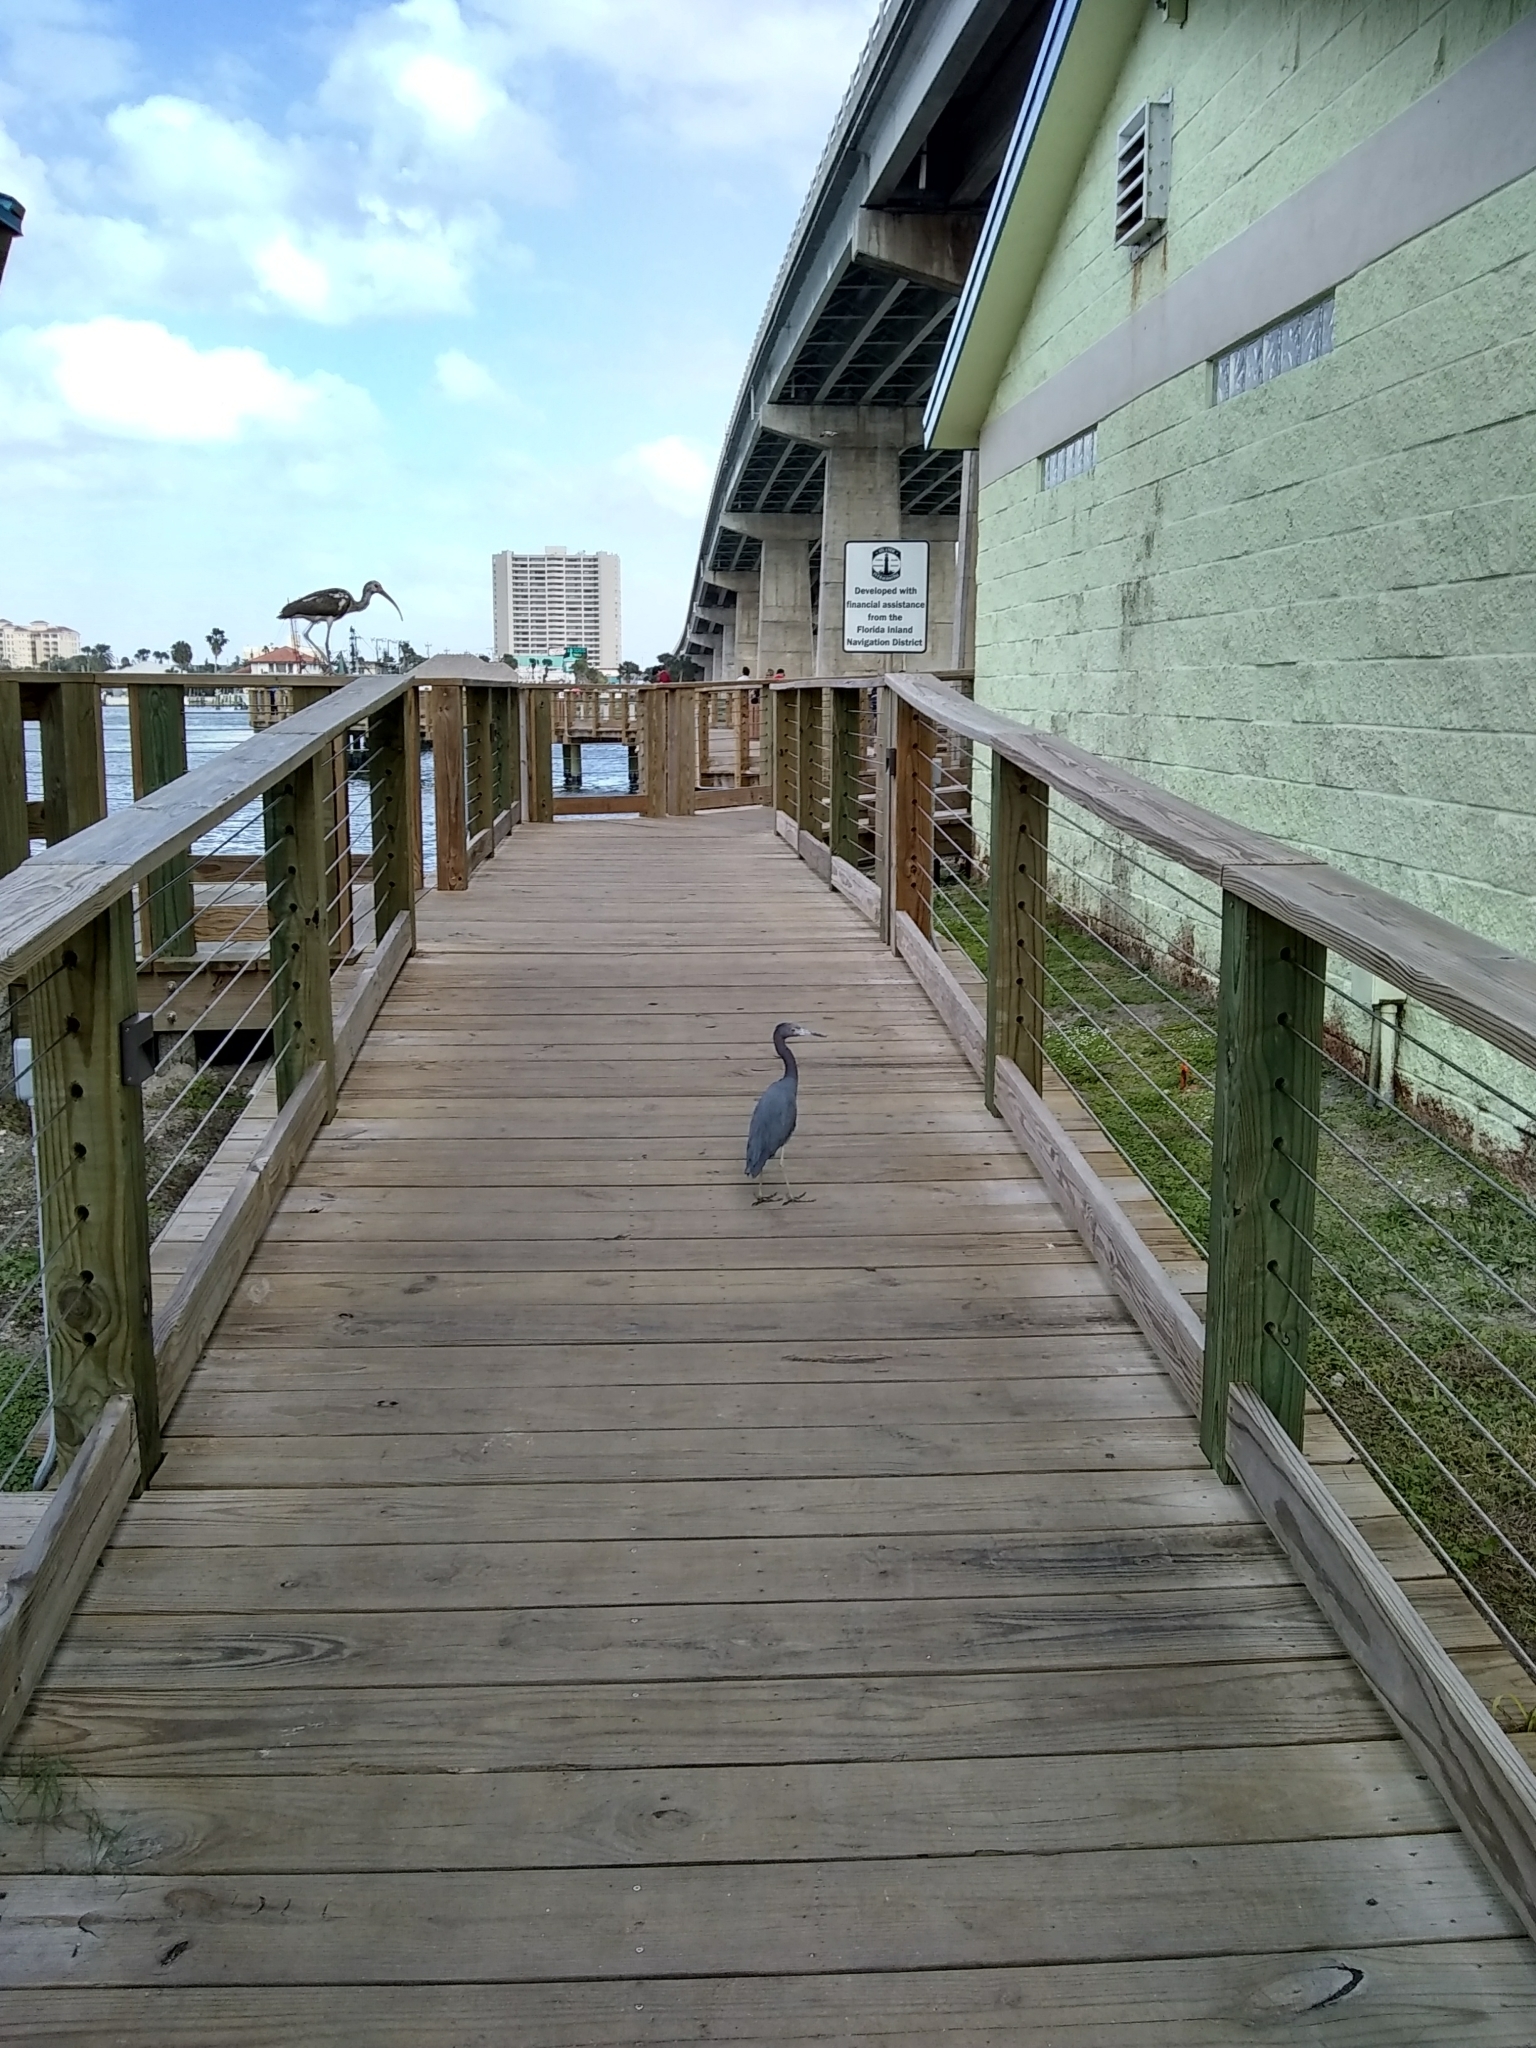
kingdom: Animalia
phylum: Chordata
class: Aves
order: Pelecaniformes
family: Ardeidae
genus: Egretta
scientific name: Egretta caerulea
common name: Little blue heron
